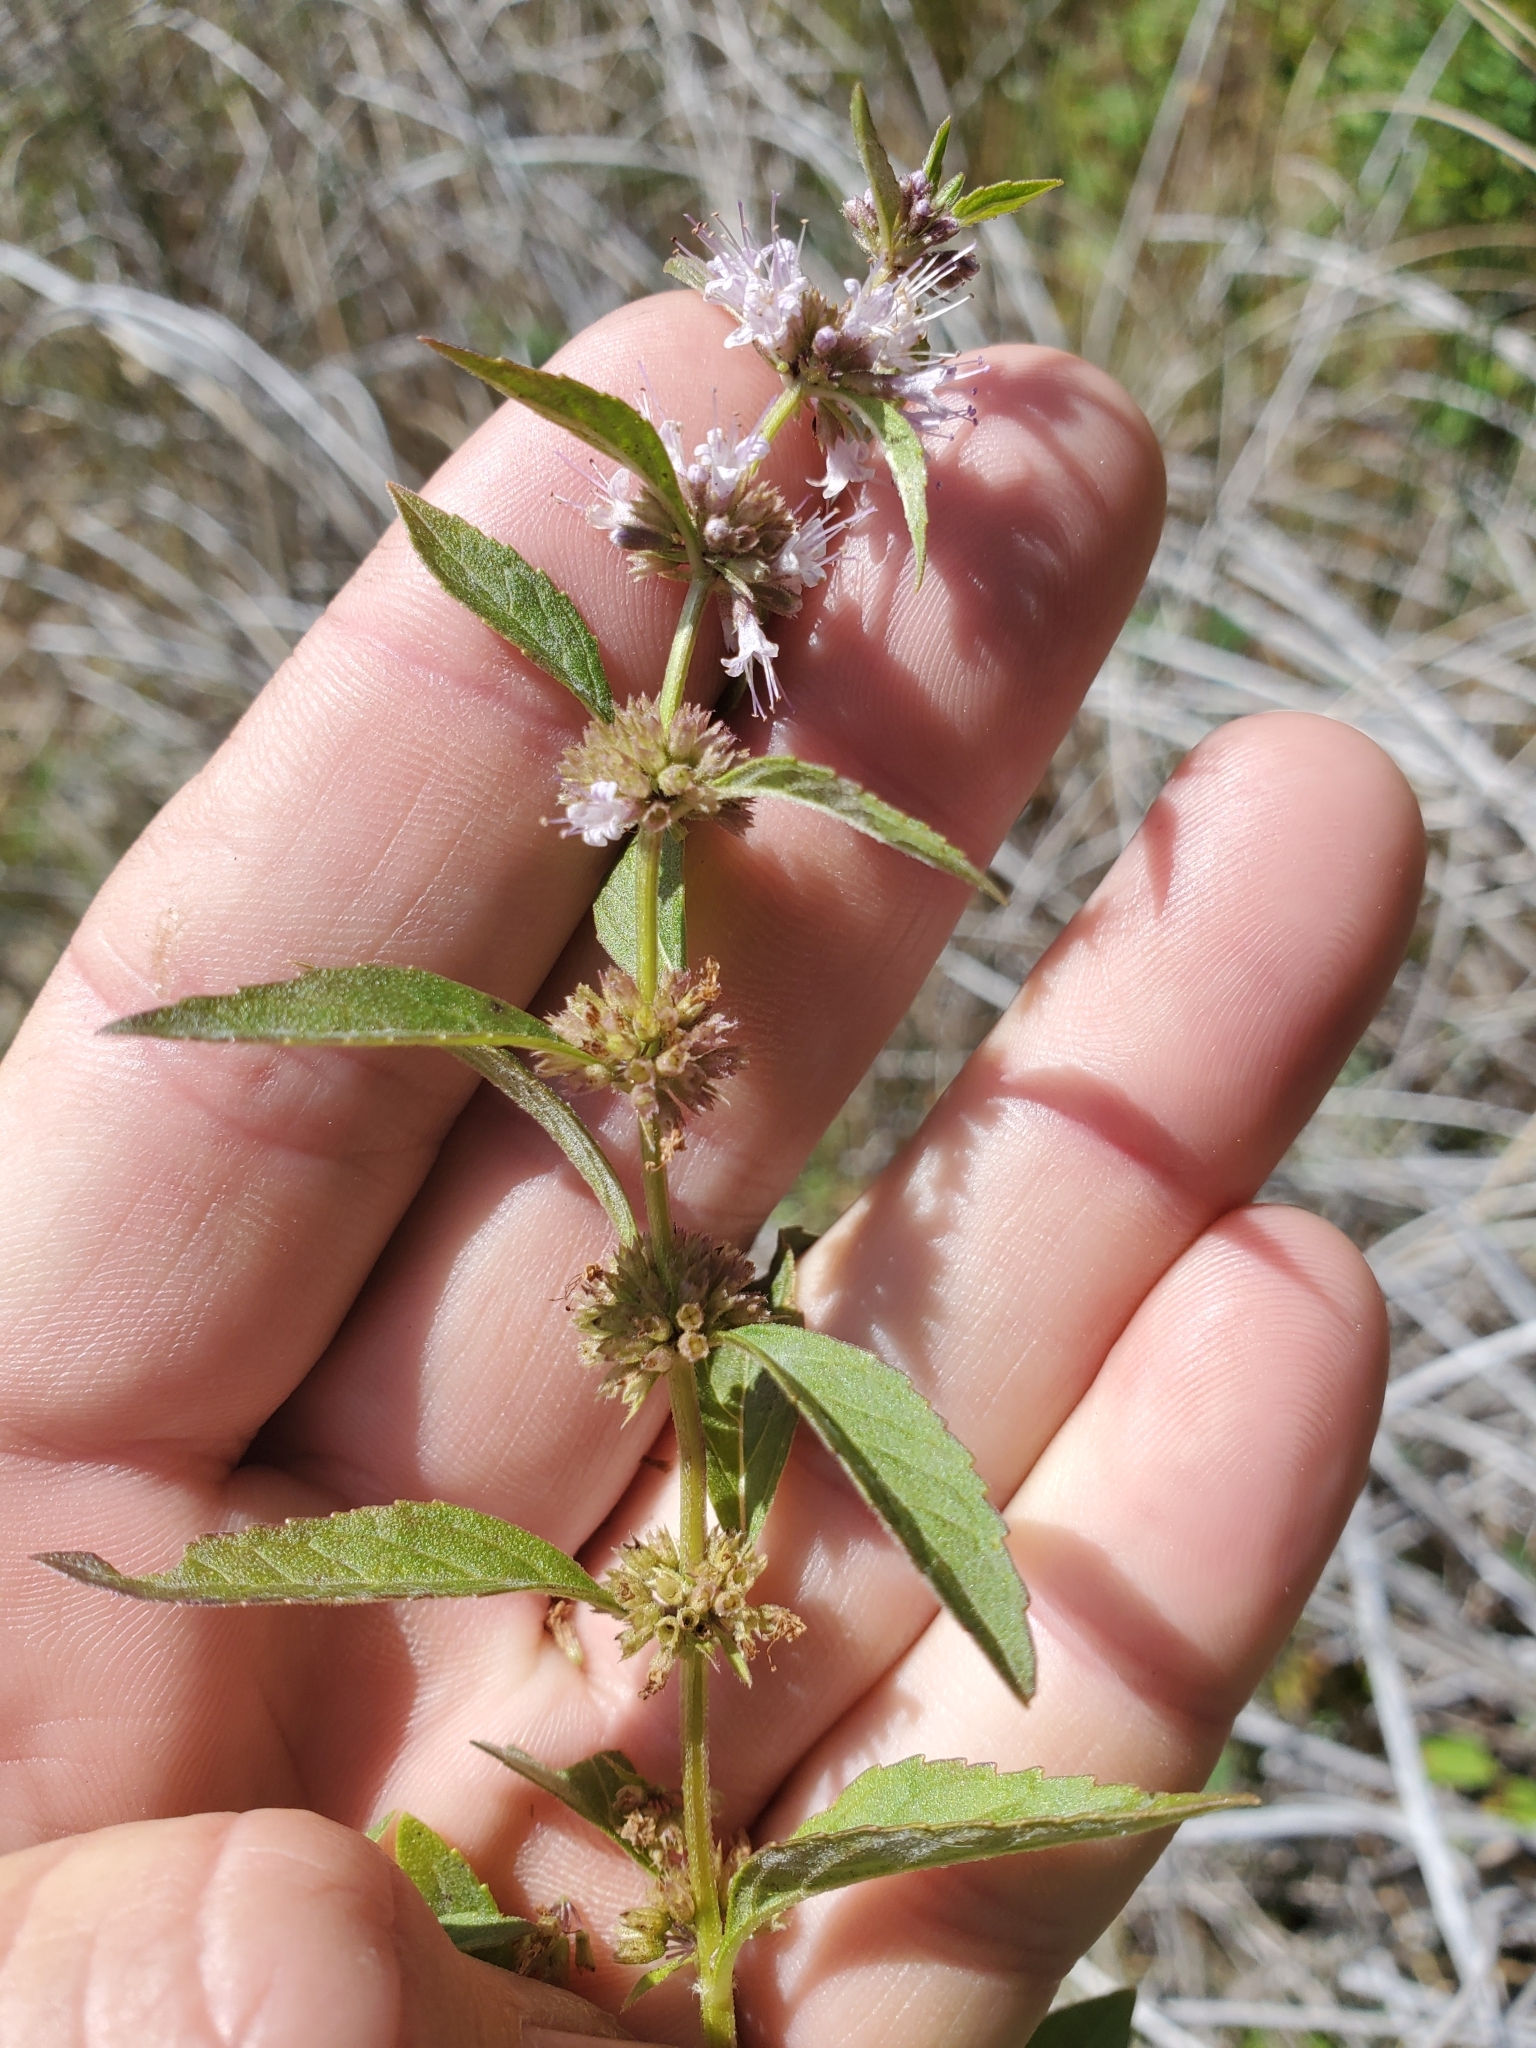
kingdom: Plantae
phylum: Tracheophyta
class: Magnoliopsida
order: Lamiales
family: Lamiaceae
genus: Mentha
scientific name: Mentha canadensis
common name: American corn mint
